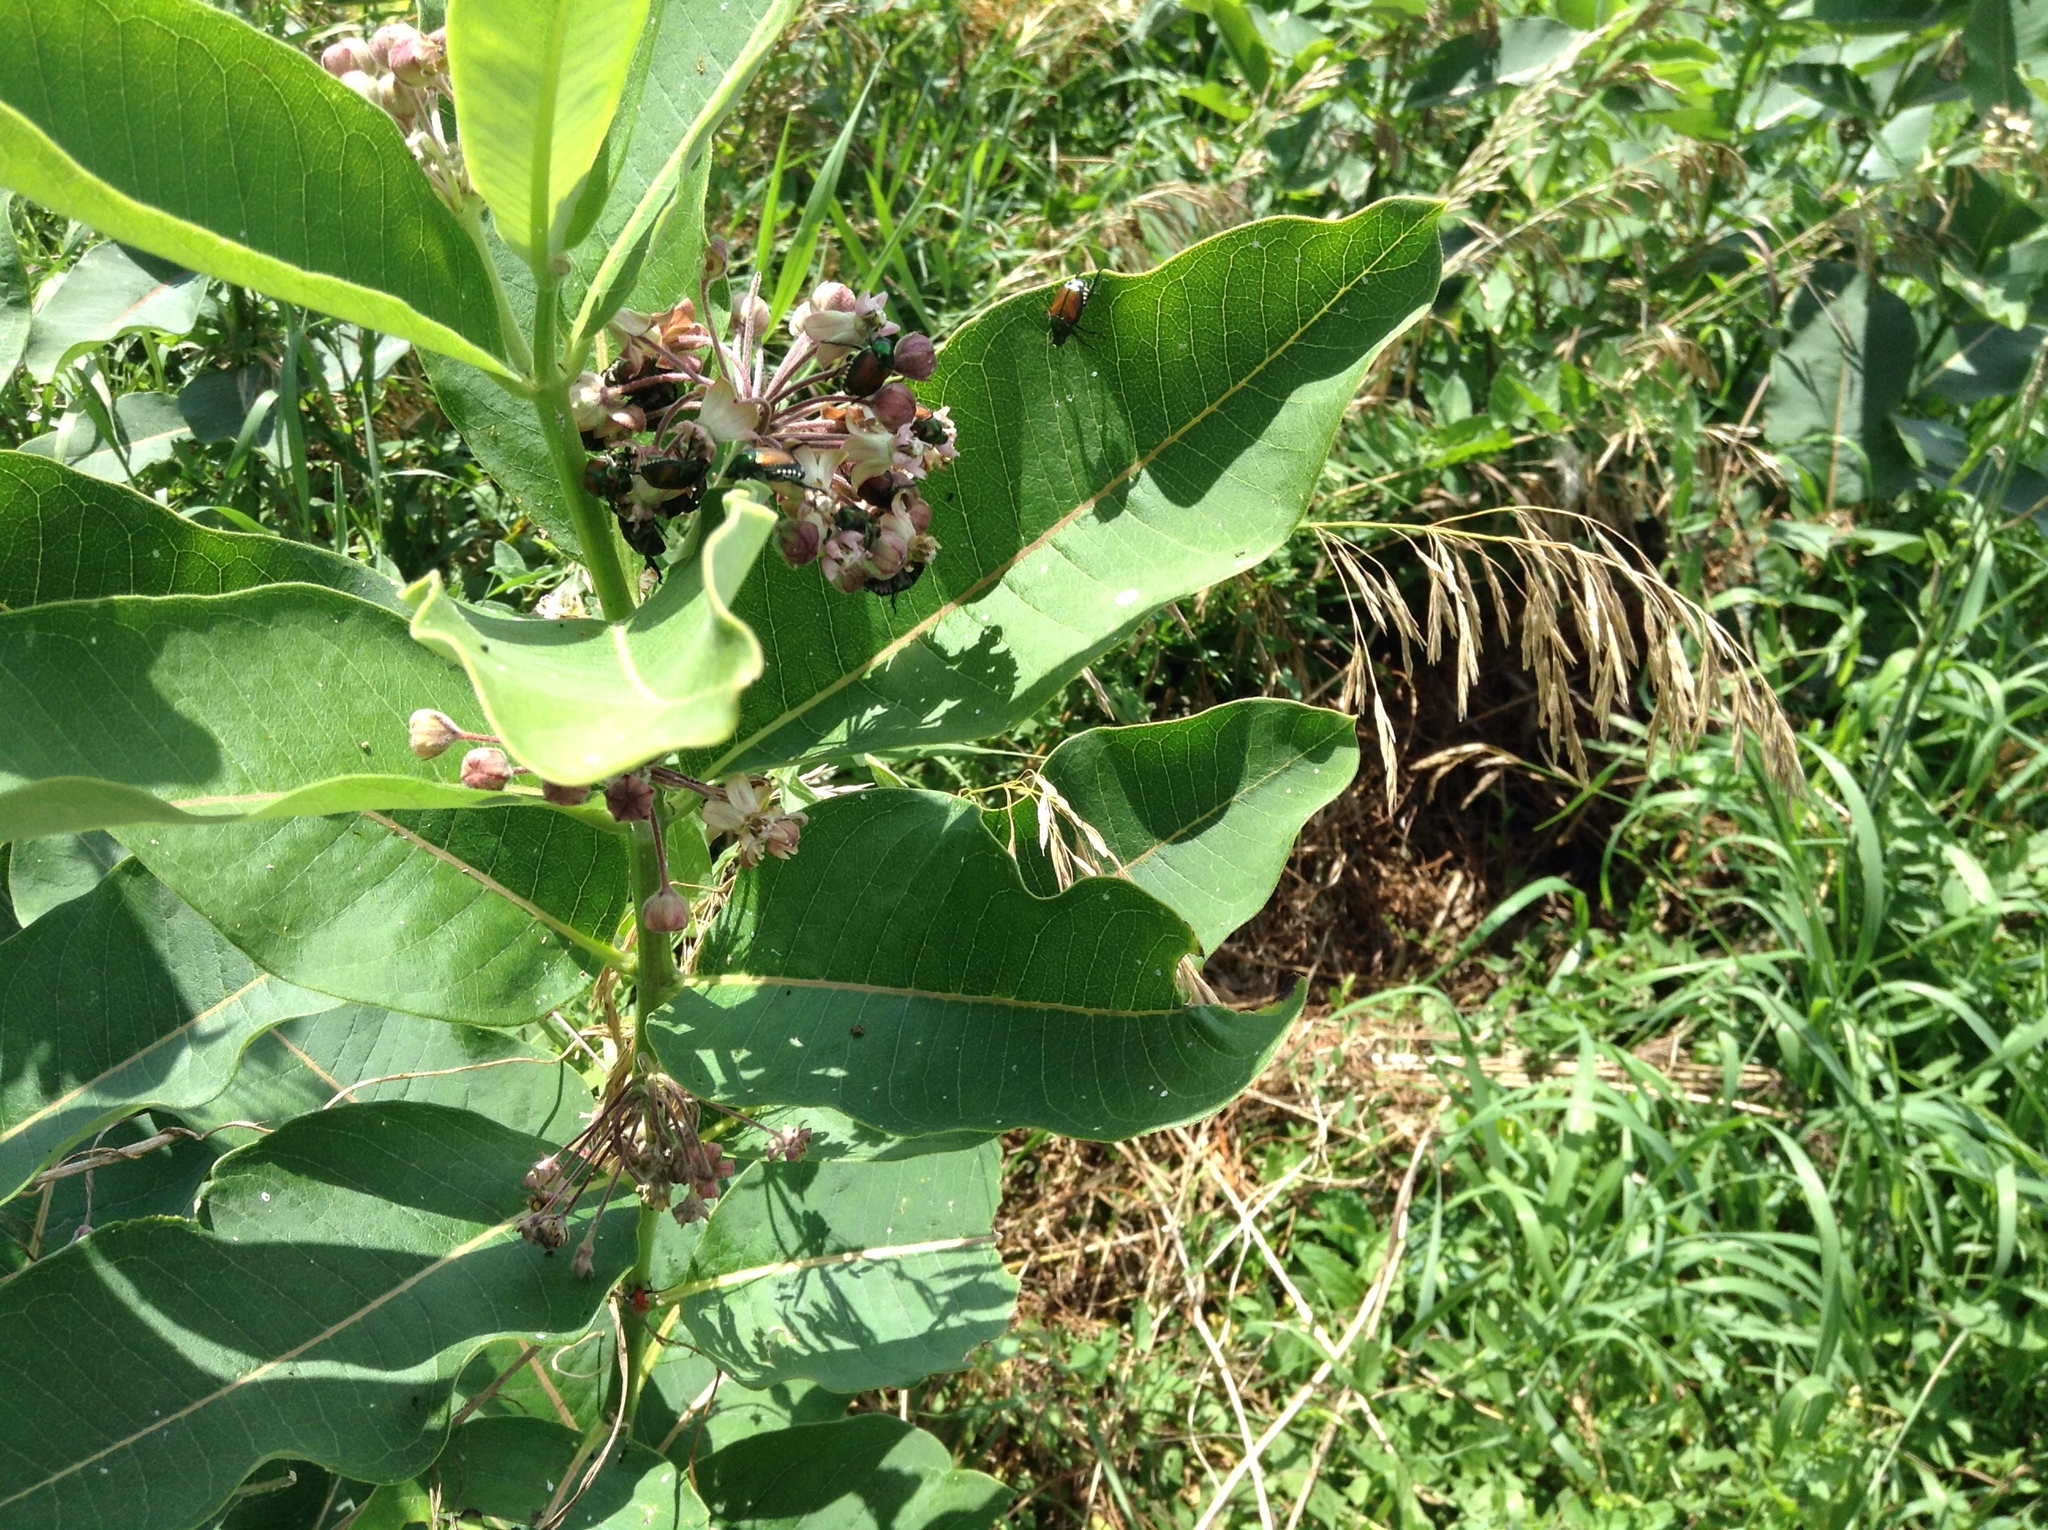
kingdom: Animalia
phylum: Arthropoda
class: Insecta
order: Coleoptera
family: Scarabaeidae
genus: Popillia
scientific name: Popillia japonica
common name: Japanese beetle
